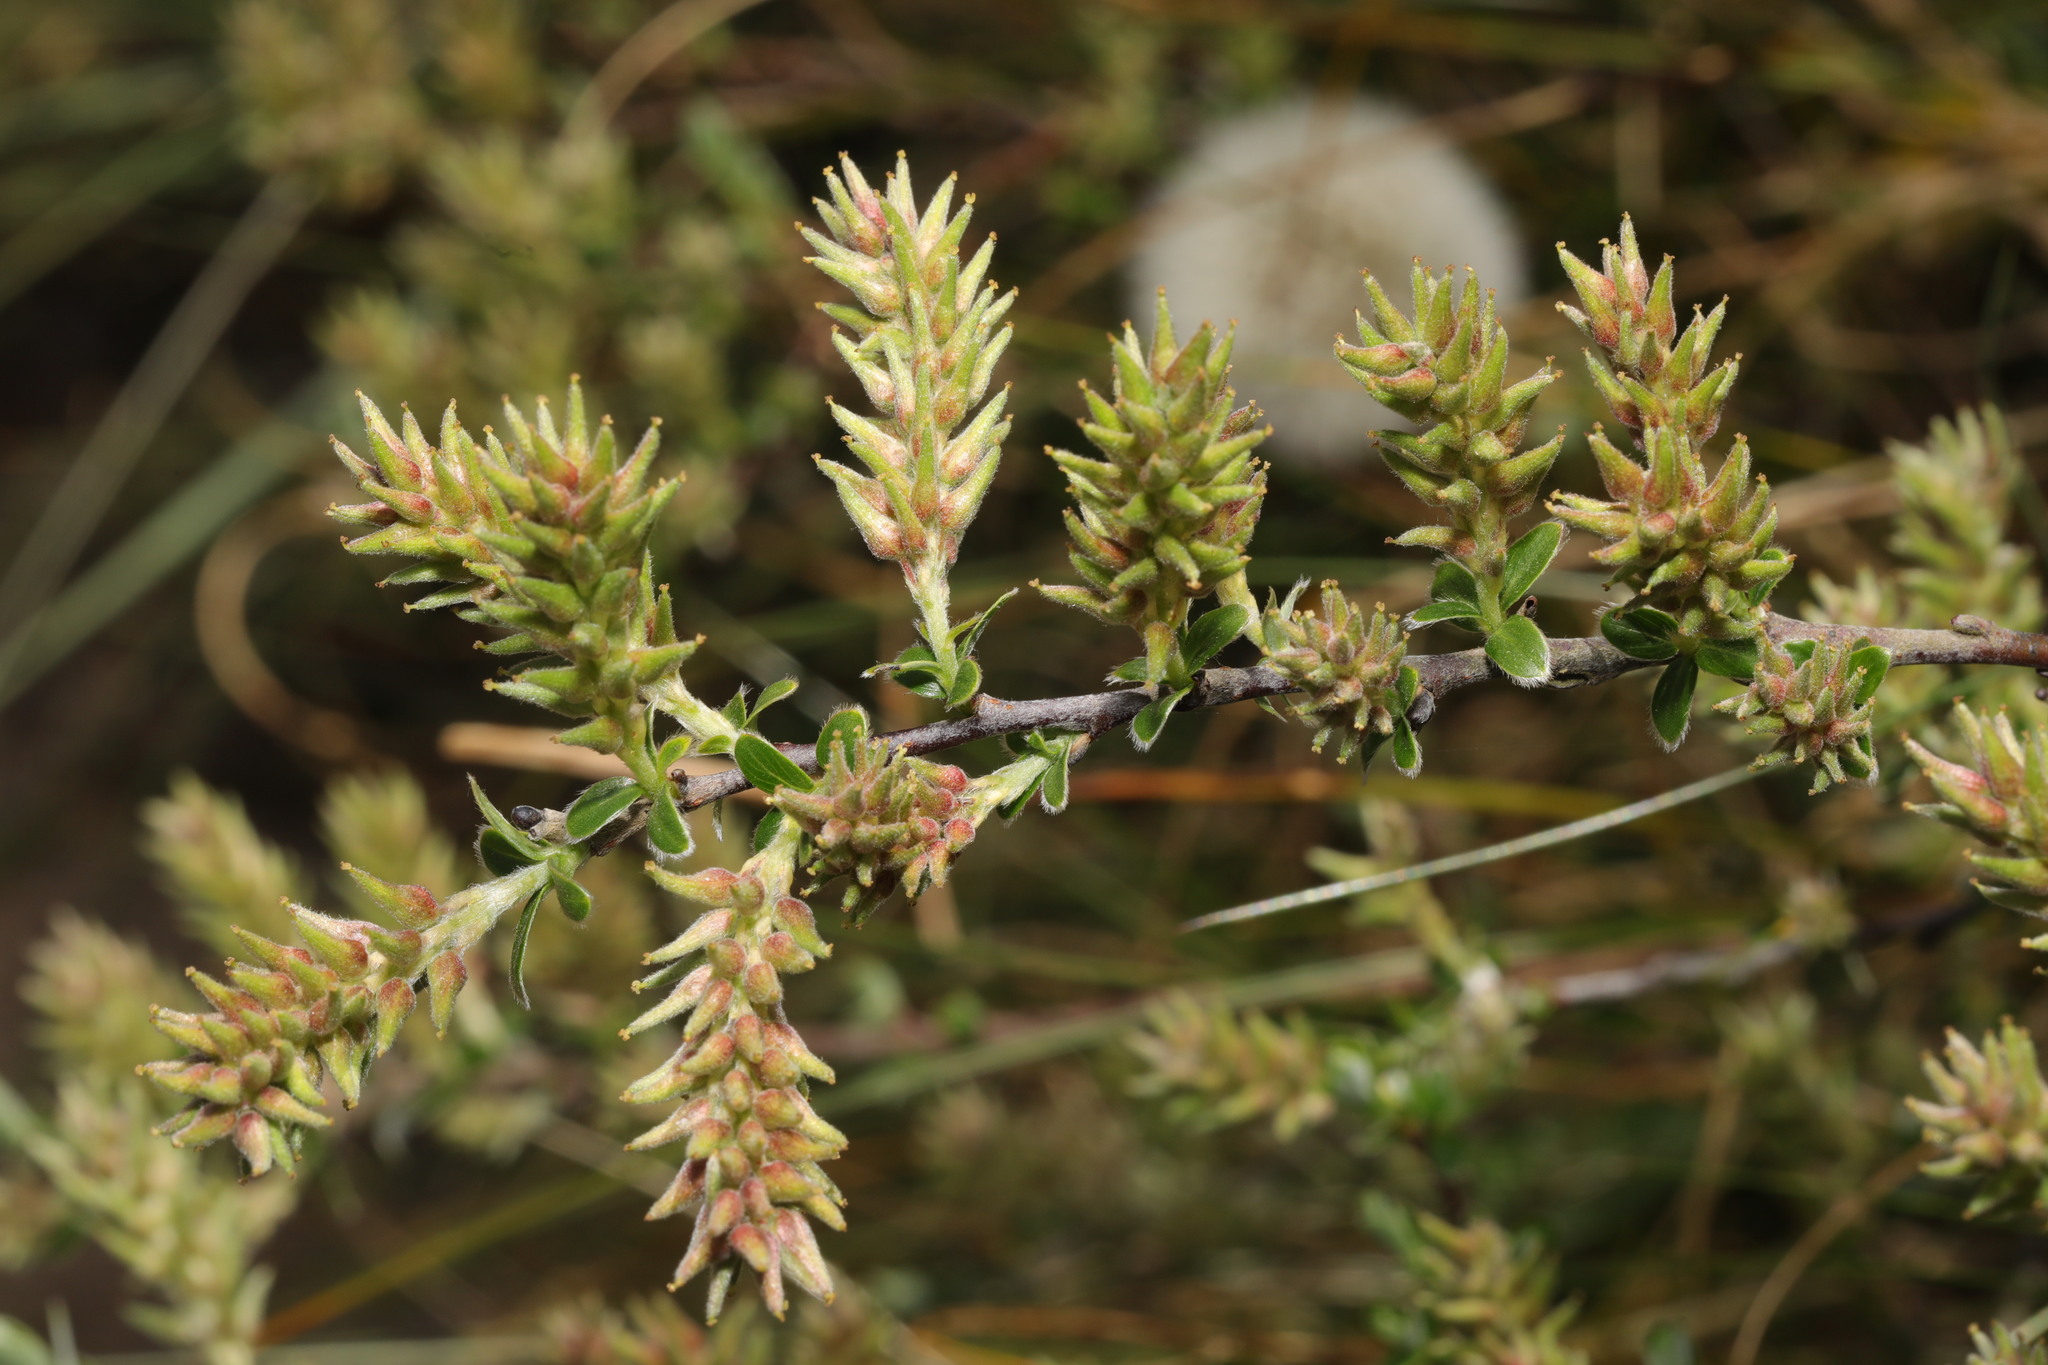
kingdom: Plantae
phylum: Tracheophyta
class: Magnoliopsida
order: Malpighiales
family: Salicaceae
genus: Salix
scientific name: Salix repens
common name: Creeping willow
